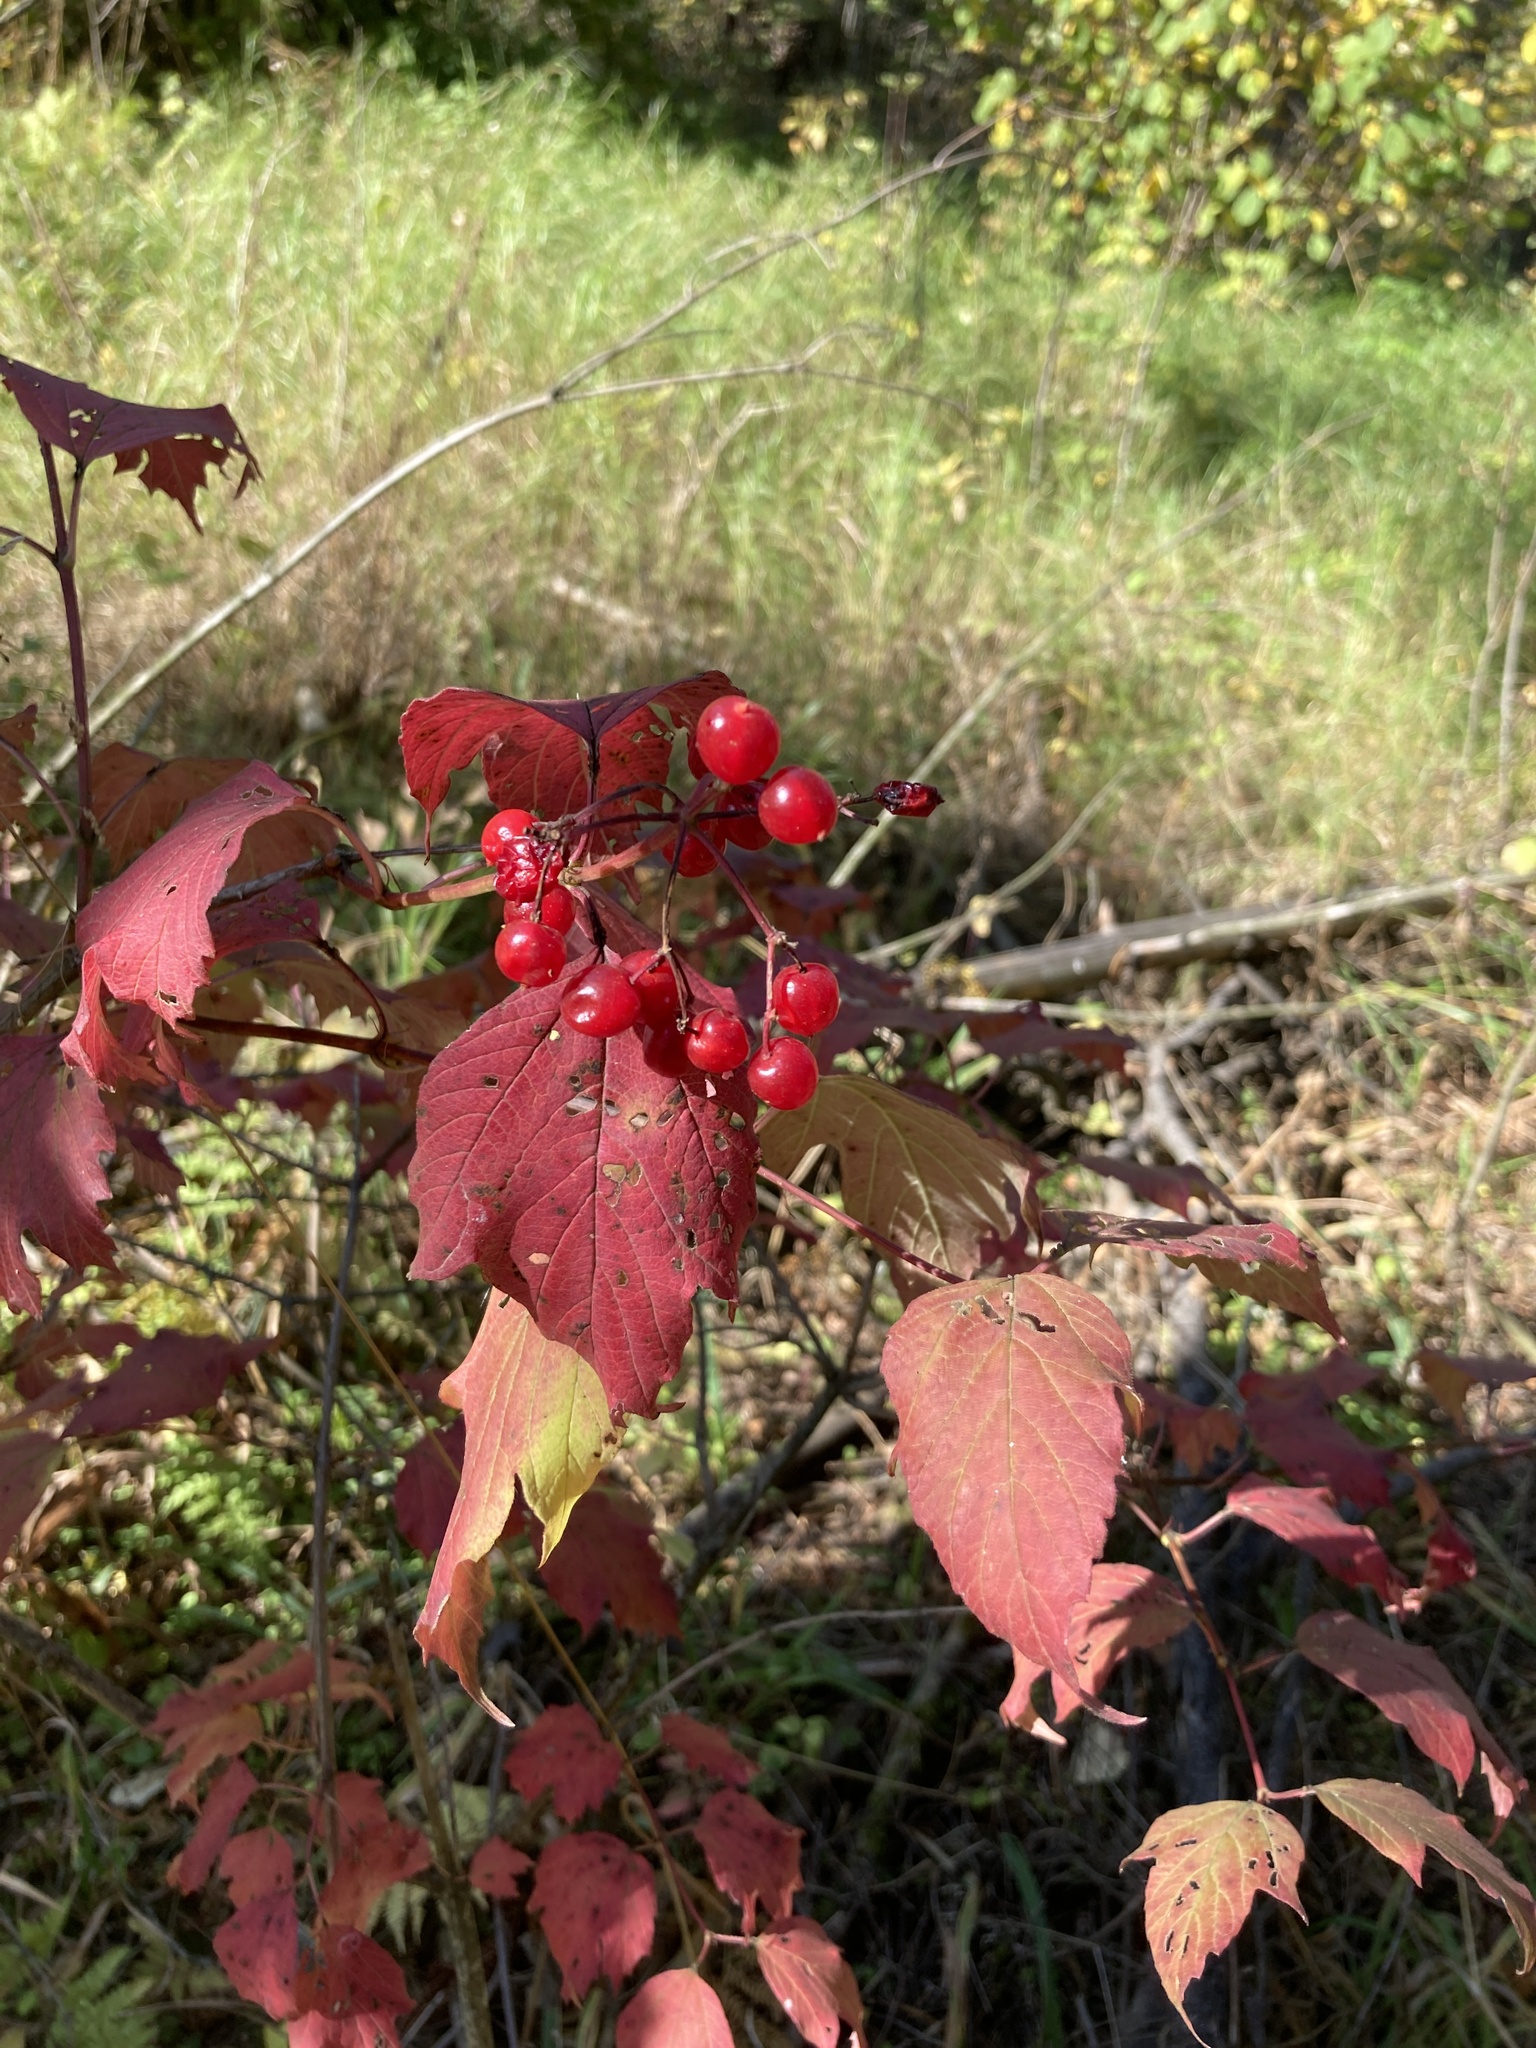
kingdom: Plantae
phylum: Tracheophyta
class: Magnoliopsida
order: Dipsacales
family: Viburnaceae
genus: Viburnum
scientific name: Viburnum opulus
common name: Guelder-rose
